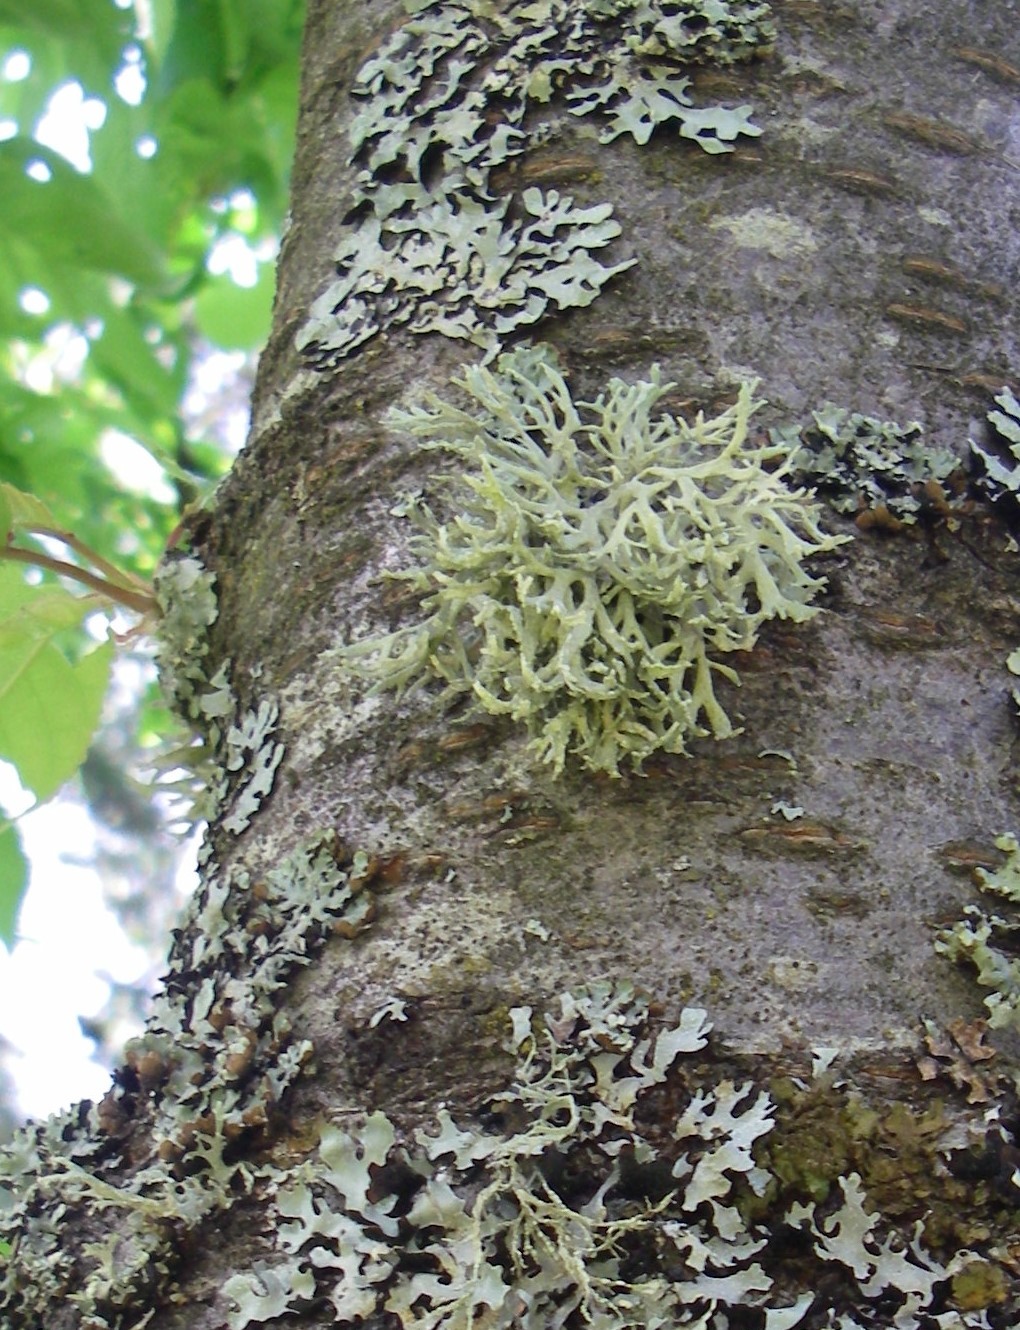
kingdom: Fungi
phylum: Ascomycota
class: Lecanoromycetes
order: Lecanorales
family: Parmeliaceae
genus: Evernia
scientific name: Evernia prunastri
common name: Oak moss
